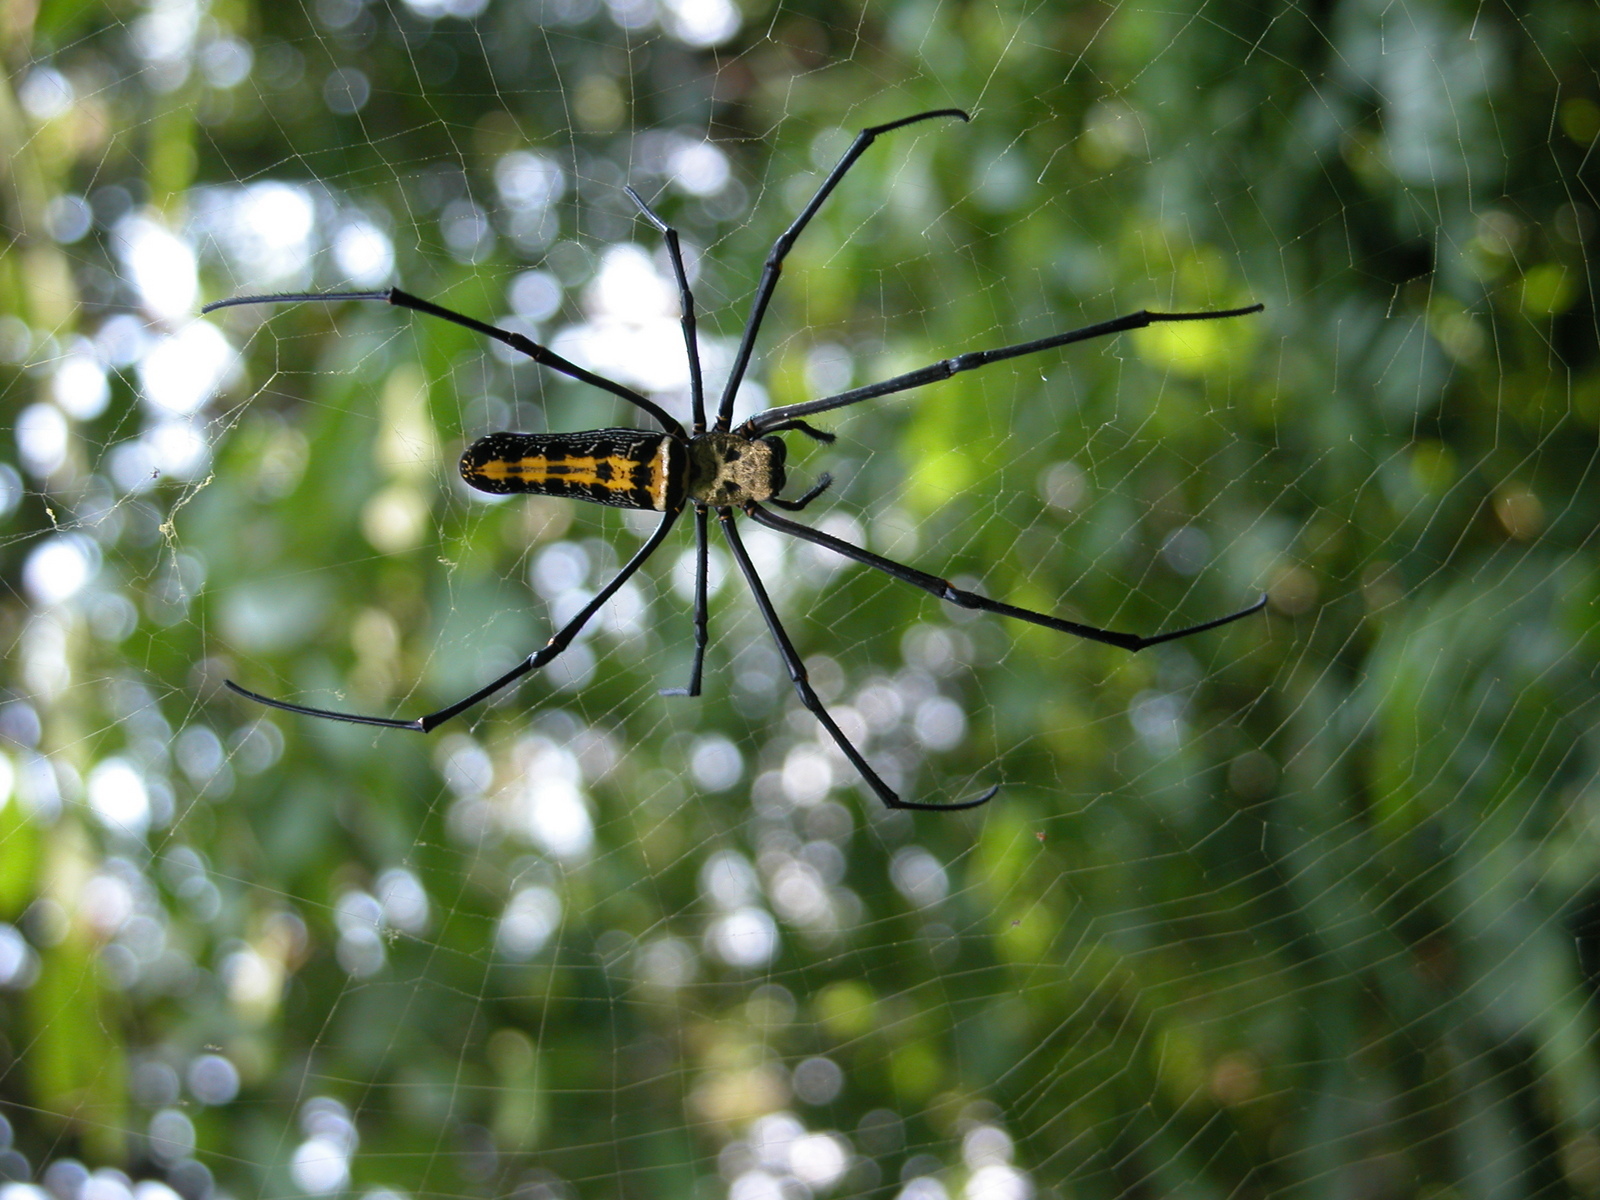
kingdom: Animalia
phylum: Arthropoda
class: Arachnida
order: Araneae
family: Araneidae
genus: Nephila
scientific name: Nephila pilipes
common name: Giant golden orb weaver
